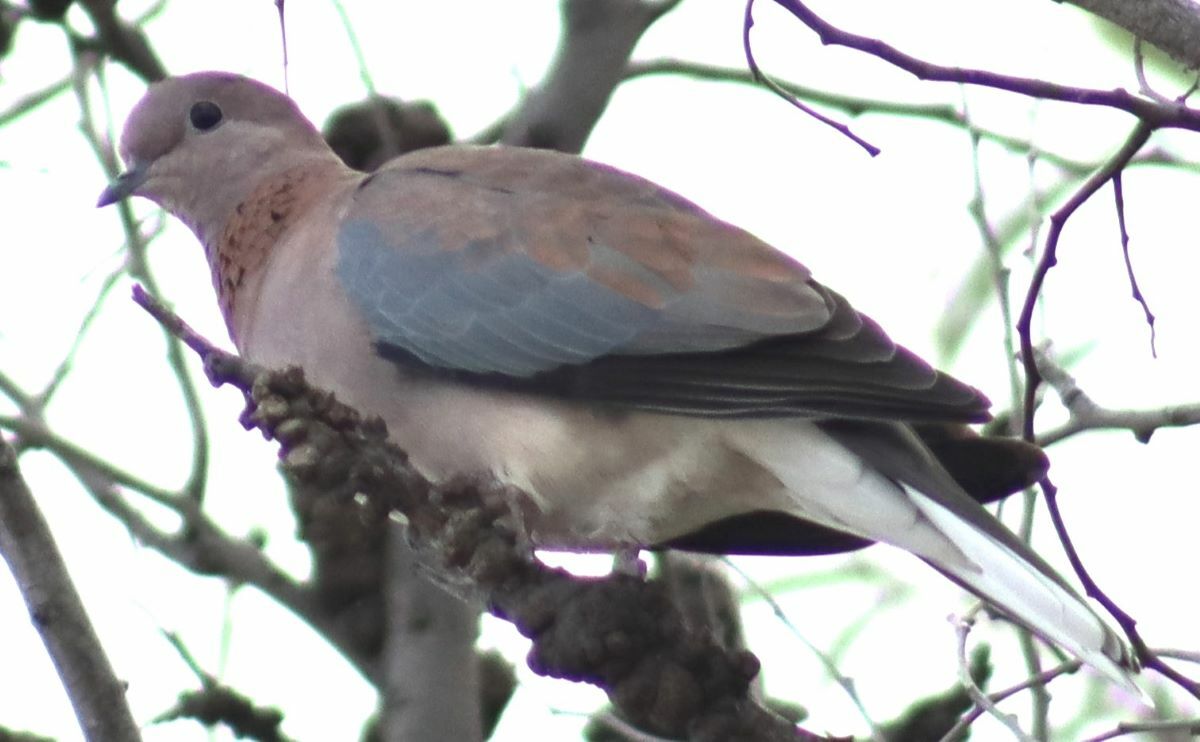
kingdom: Animalia
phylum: Chordata
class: Aves
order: Columbiformes
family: Columbidae
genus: Spilopelia
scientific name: Spilopelia senegalensis
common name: Laughing dove
